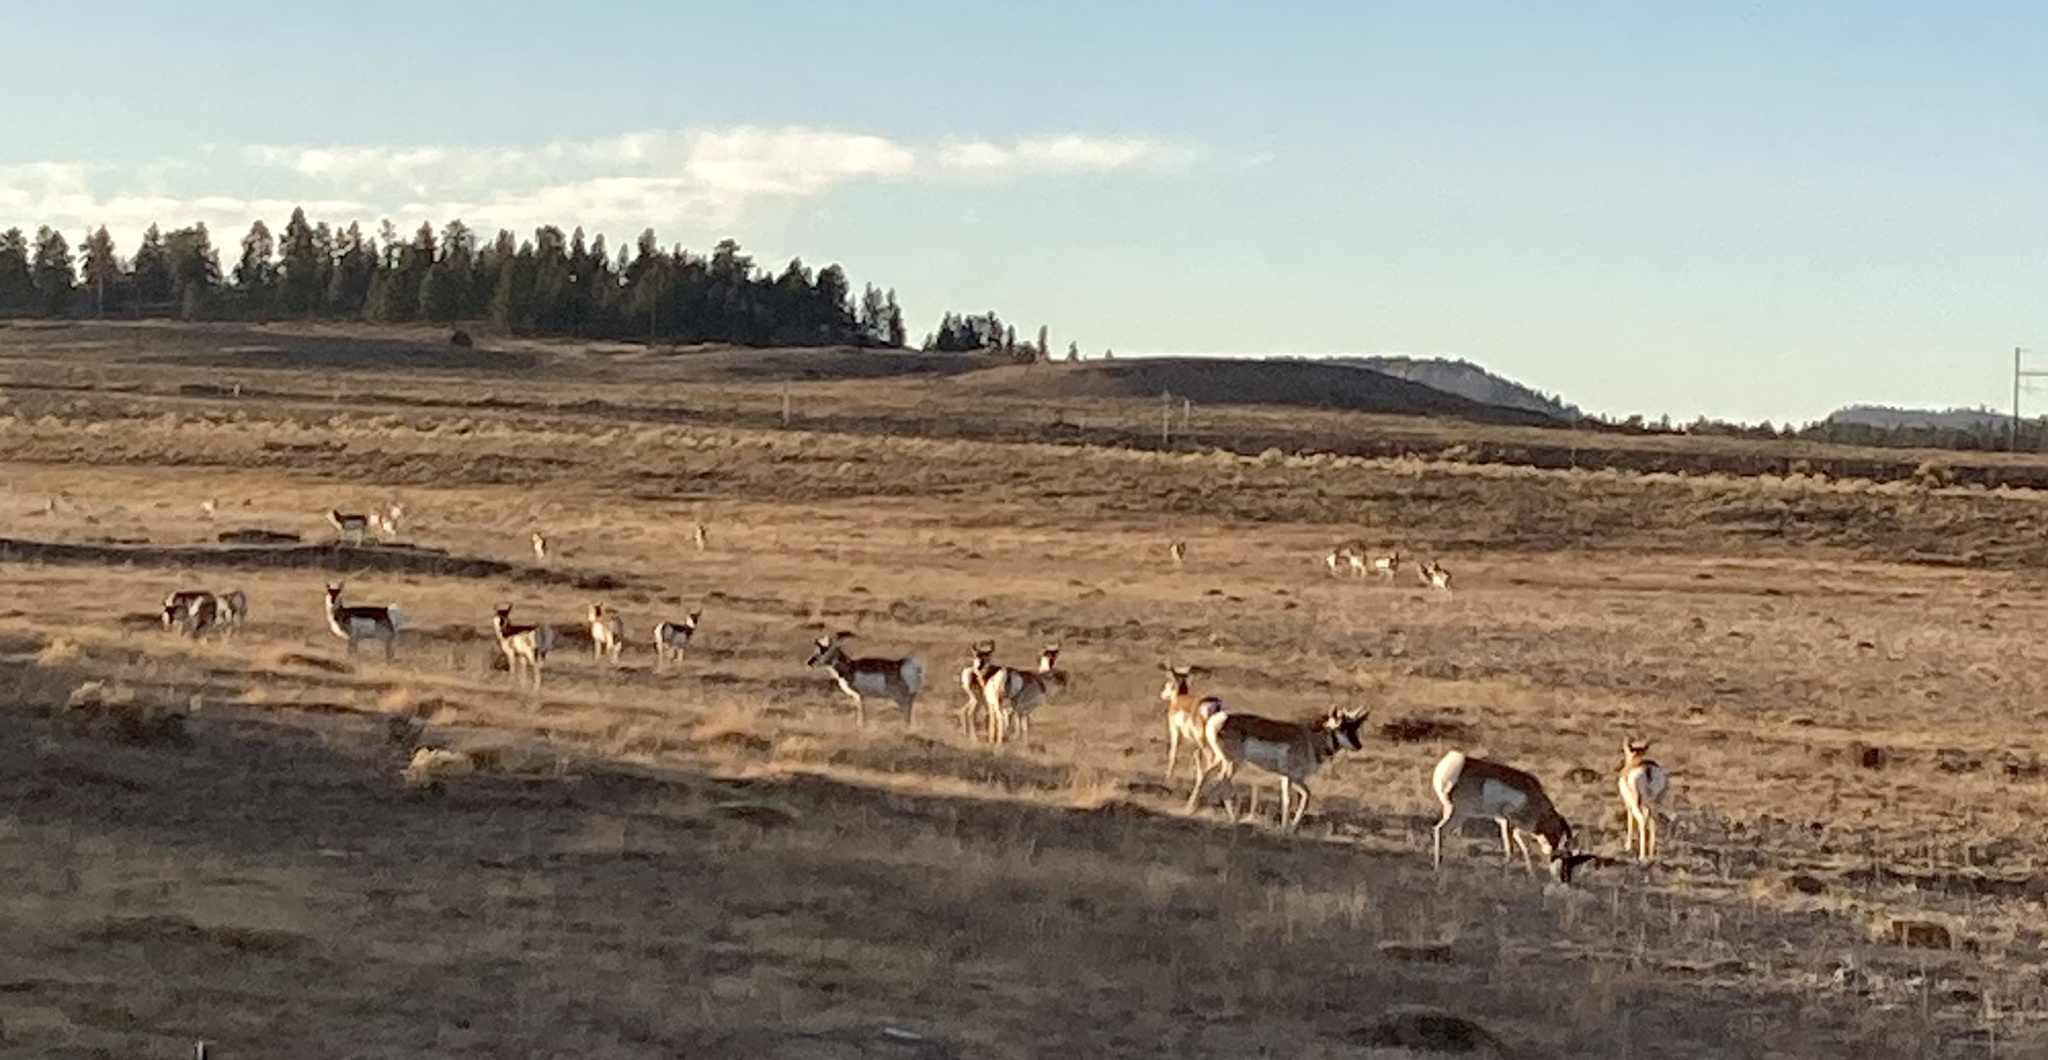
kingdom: Animalia
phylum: Chordata
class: Mammalia
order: Artiodactyla
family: Antilocapridae
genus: Antilocapra
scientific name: Antilocapra americana
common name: Pronghorn
